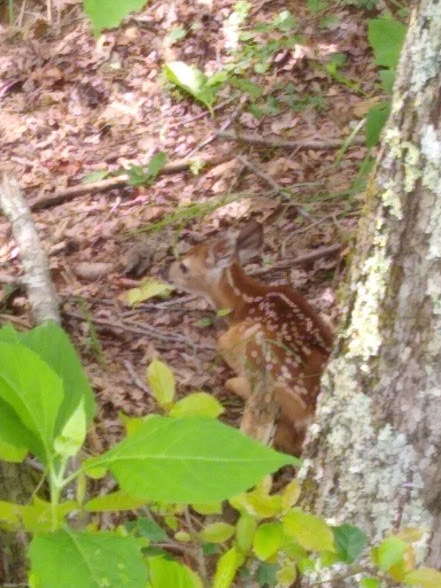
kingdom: Animalia
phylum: Chordata
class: Mammalia
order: Artiodactyla
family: Cervidae
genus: Odocoileus
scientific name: Odocoileus virginianus
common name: White-tailed deer
